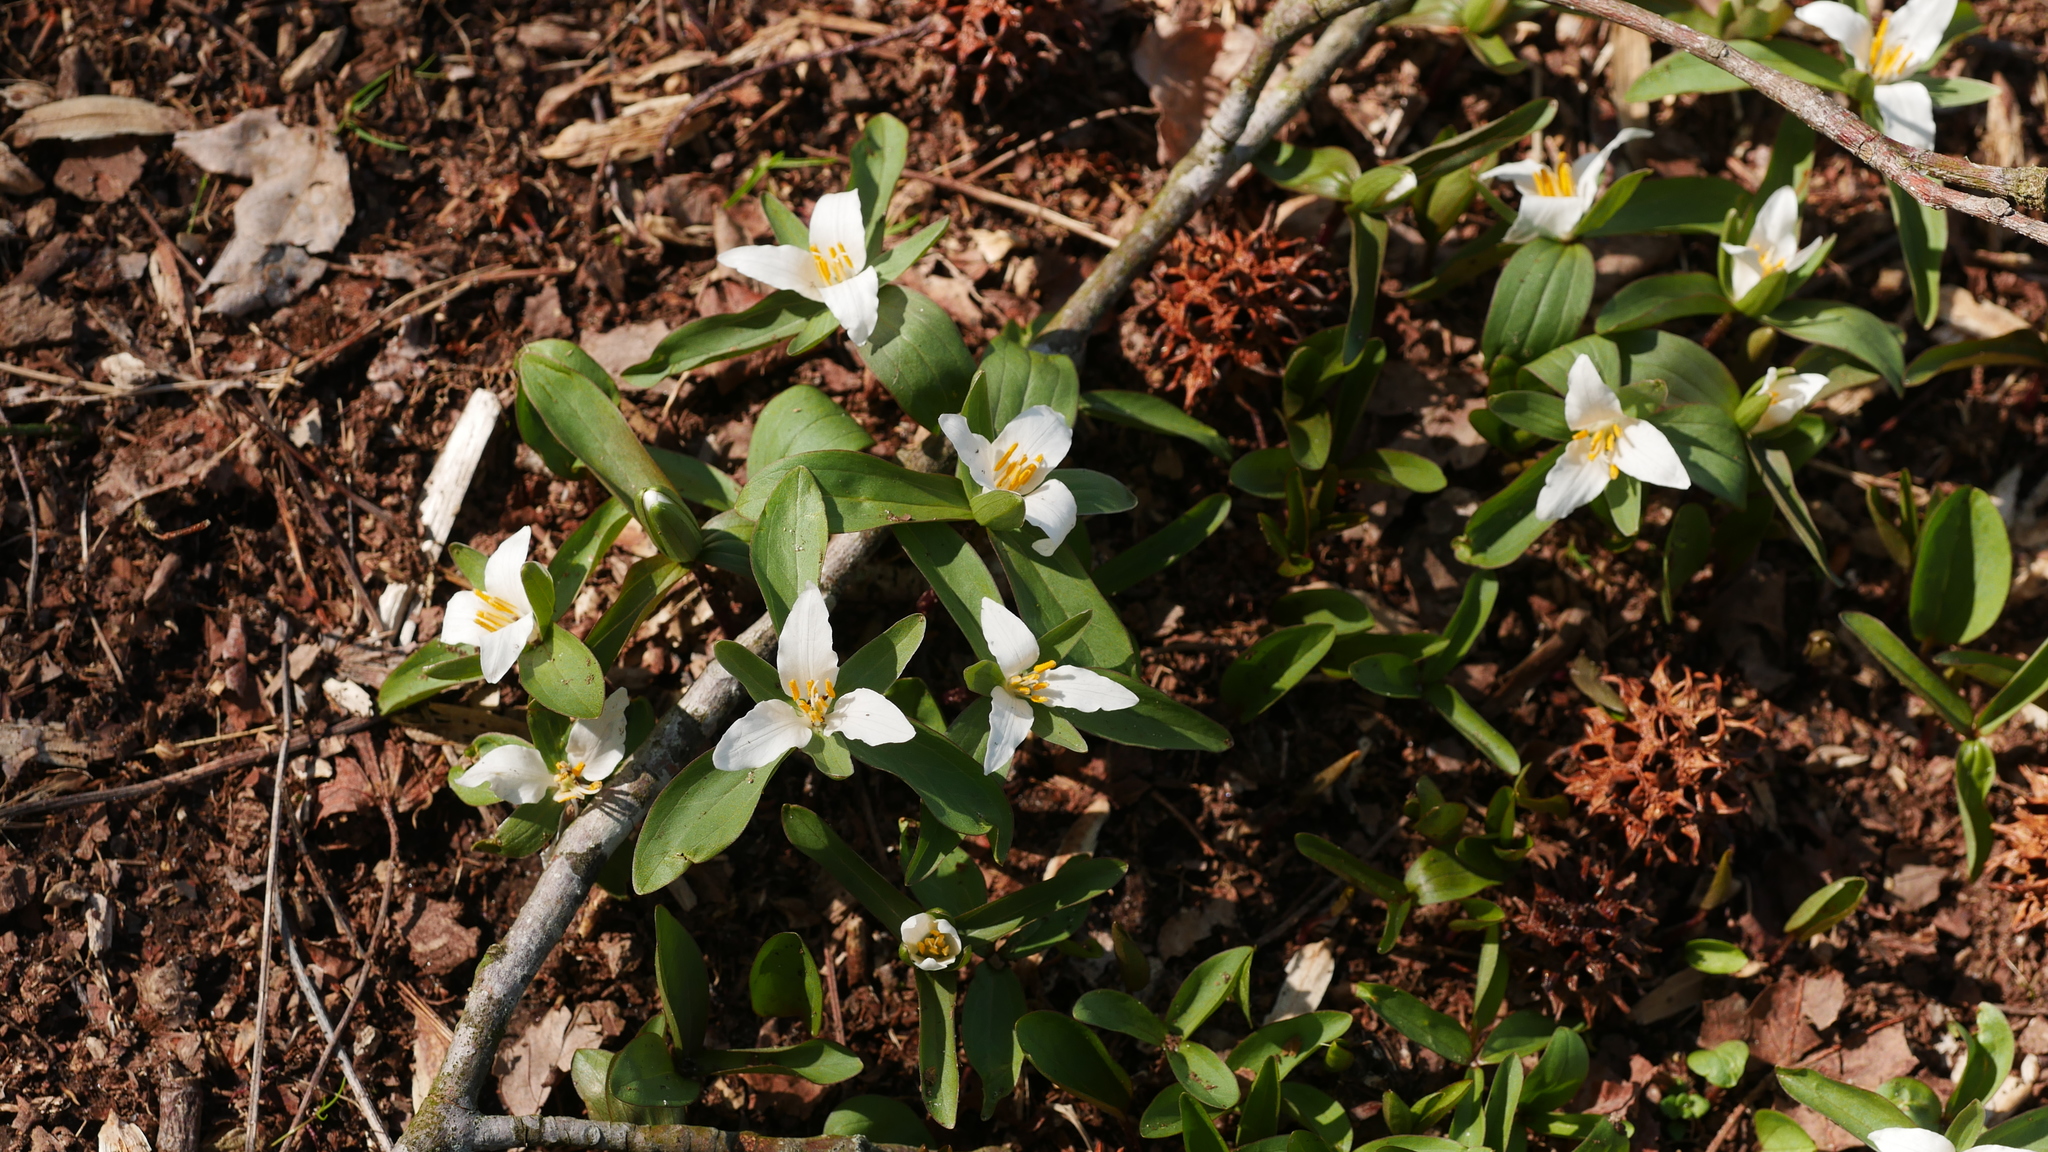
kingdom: Plantae
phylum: Tracheophyta
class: Liliopsida
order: Liliales
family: Melanthiaceae
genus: Trillium
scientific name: Trillium pusillum
